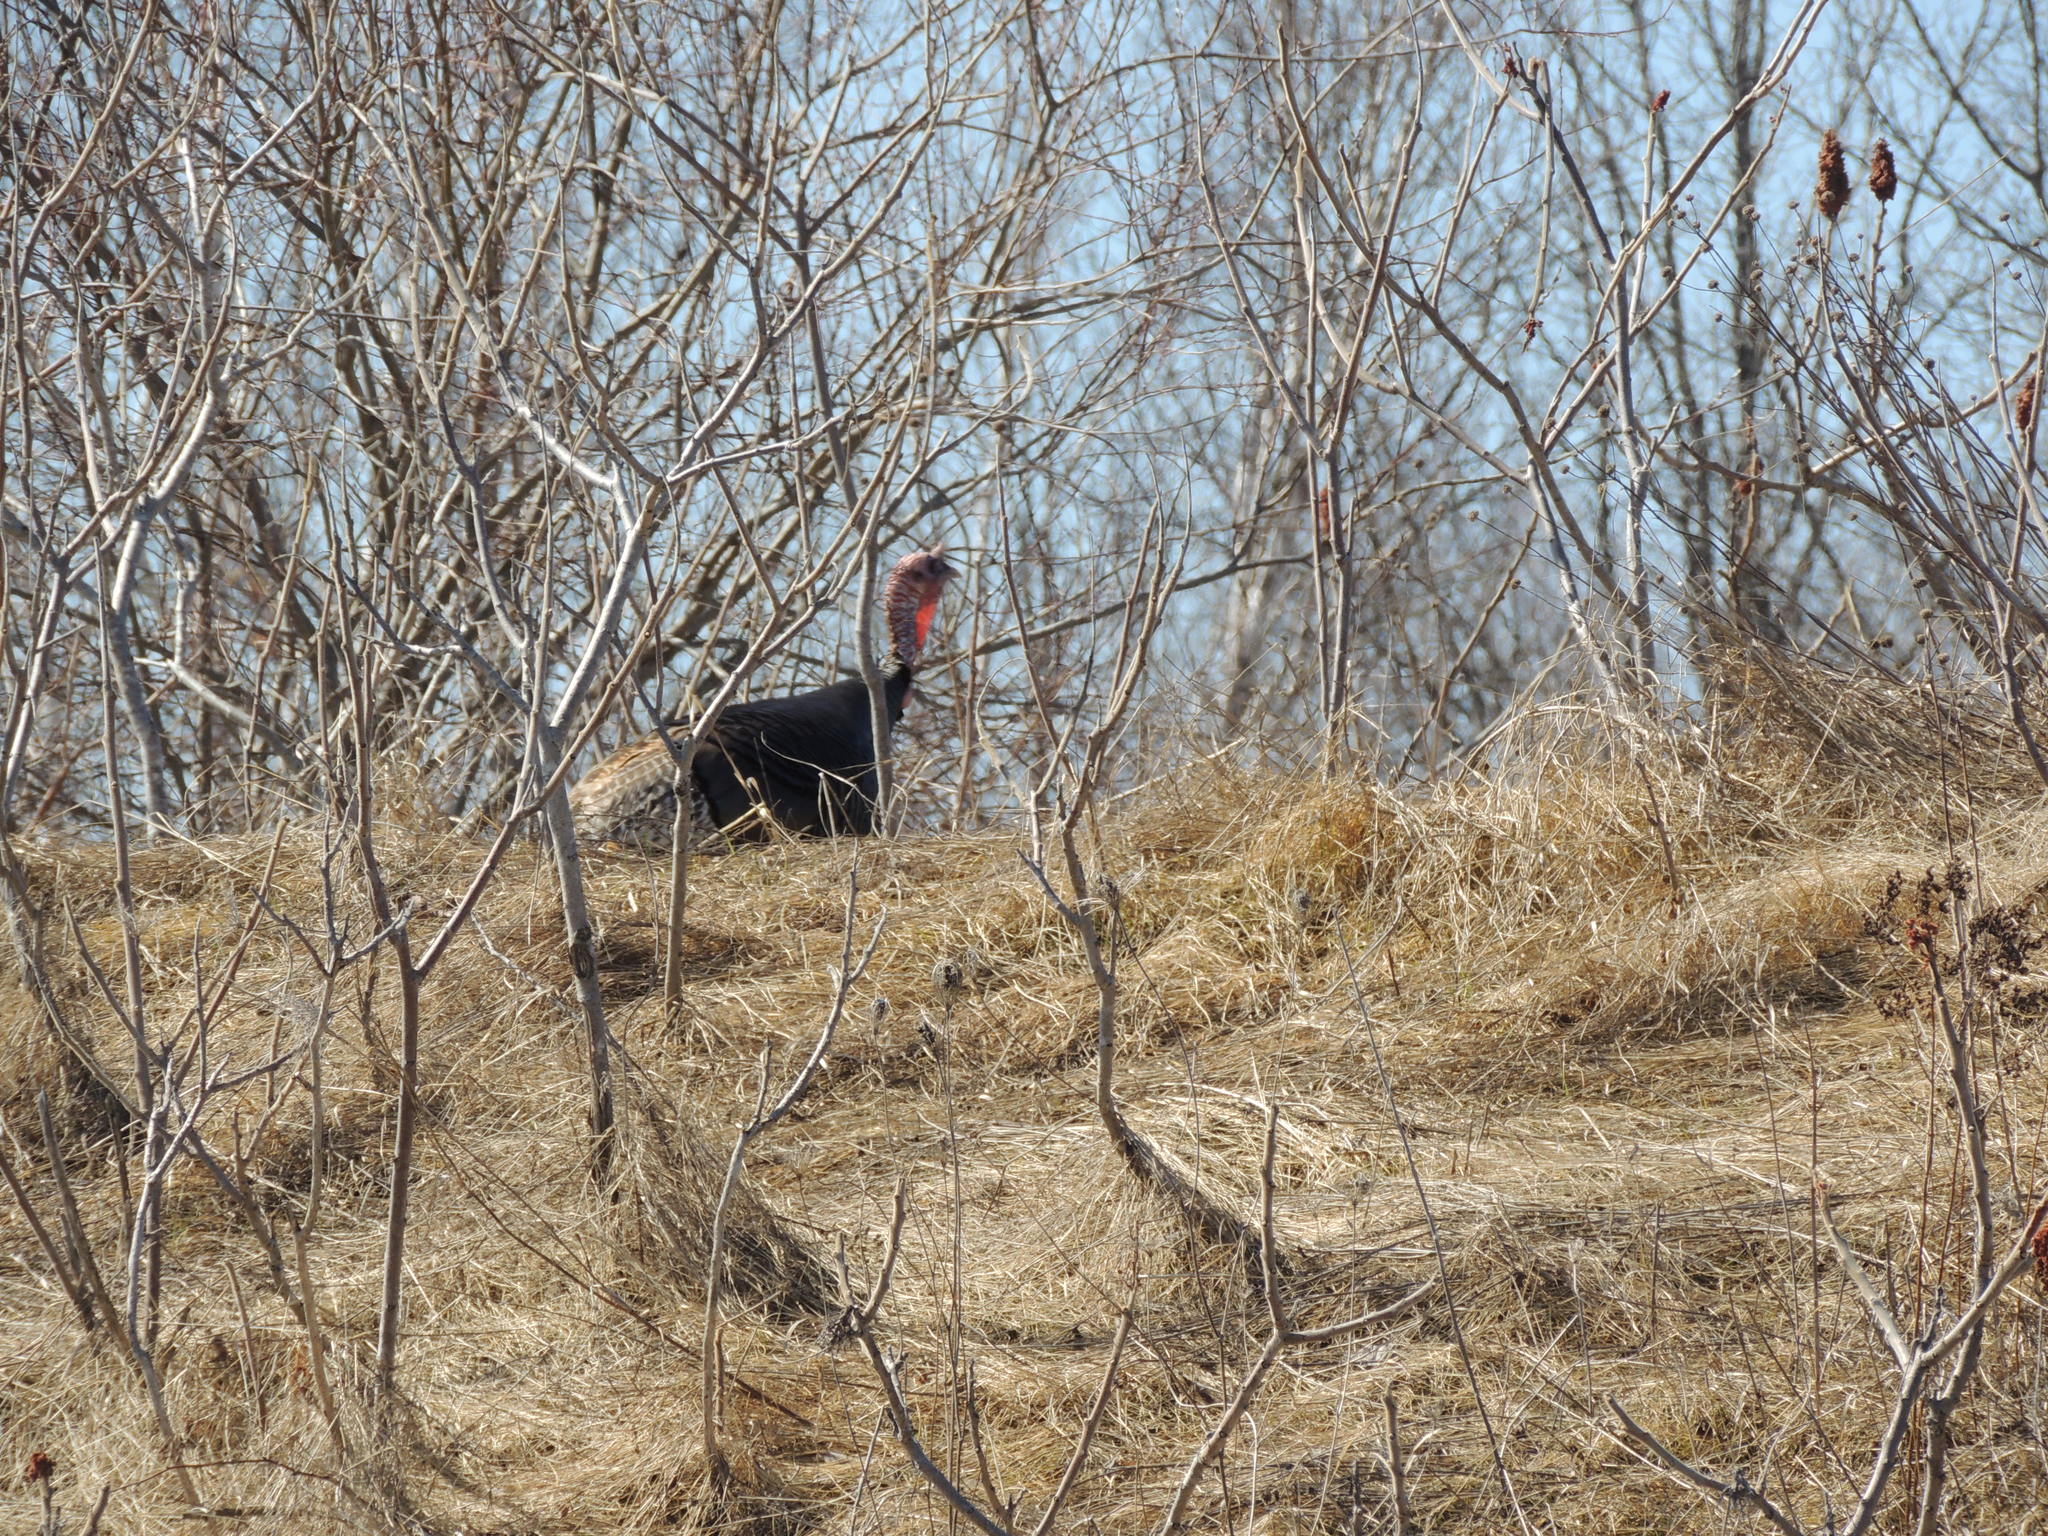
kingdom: Animalia
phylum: Chordata
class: Aves
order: Galliformes
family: Phasianidae
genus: Meleagris
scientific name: Meleagris gallopavo
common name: Wild turkey
